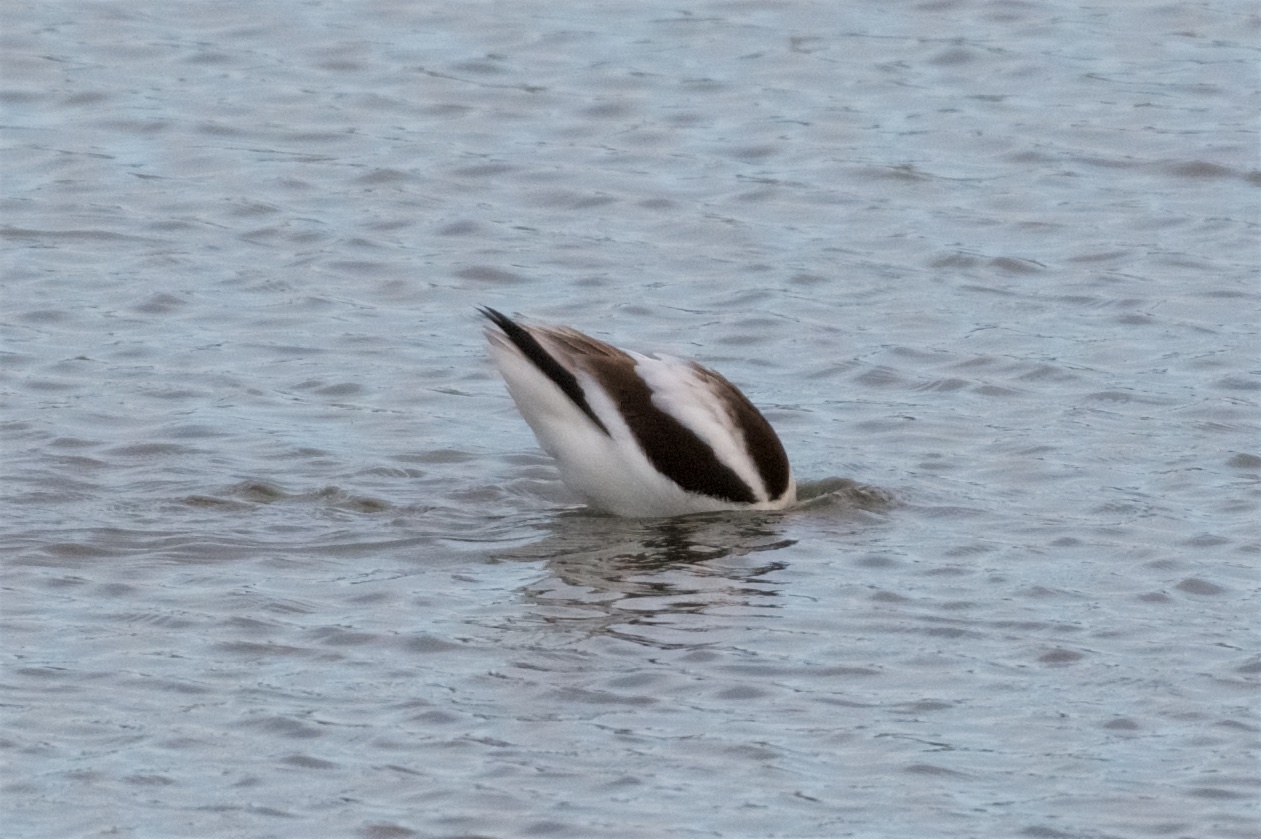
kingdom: Animalia
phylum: Chordata
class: Aves
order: Charadriiformes
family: Recurvirostridae
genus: Recurvirostra
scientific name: Recurvirostra americana
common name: American avocet
